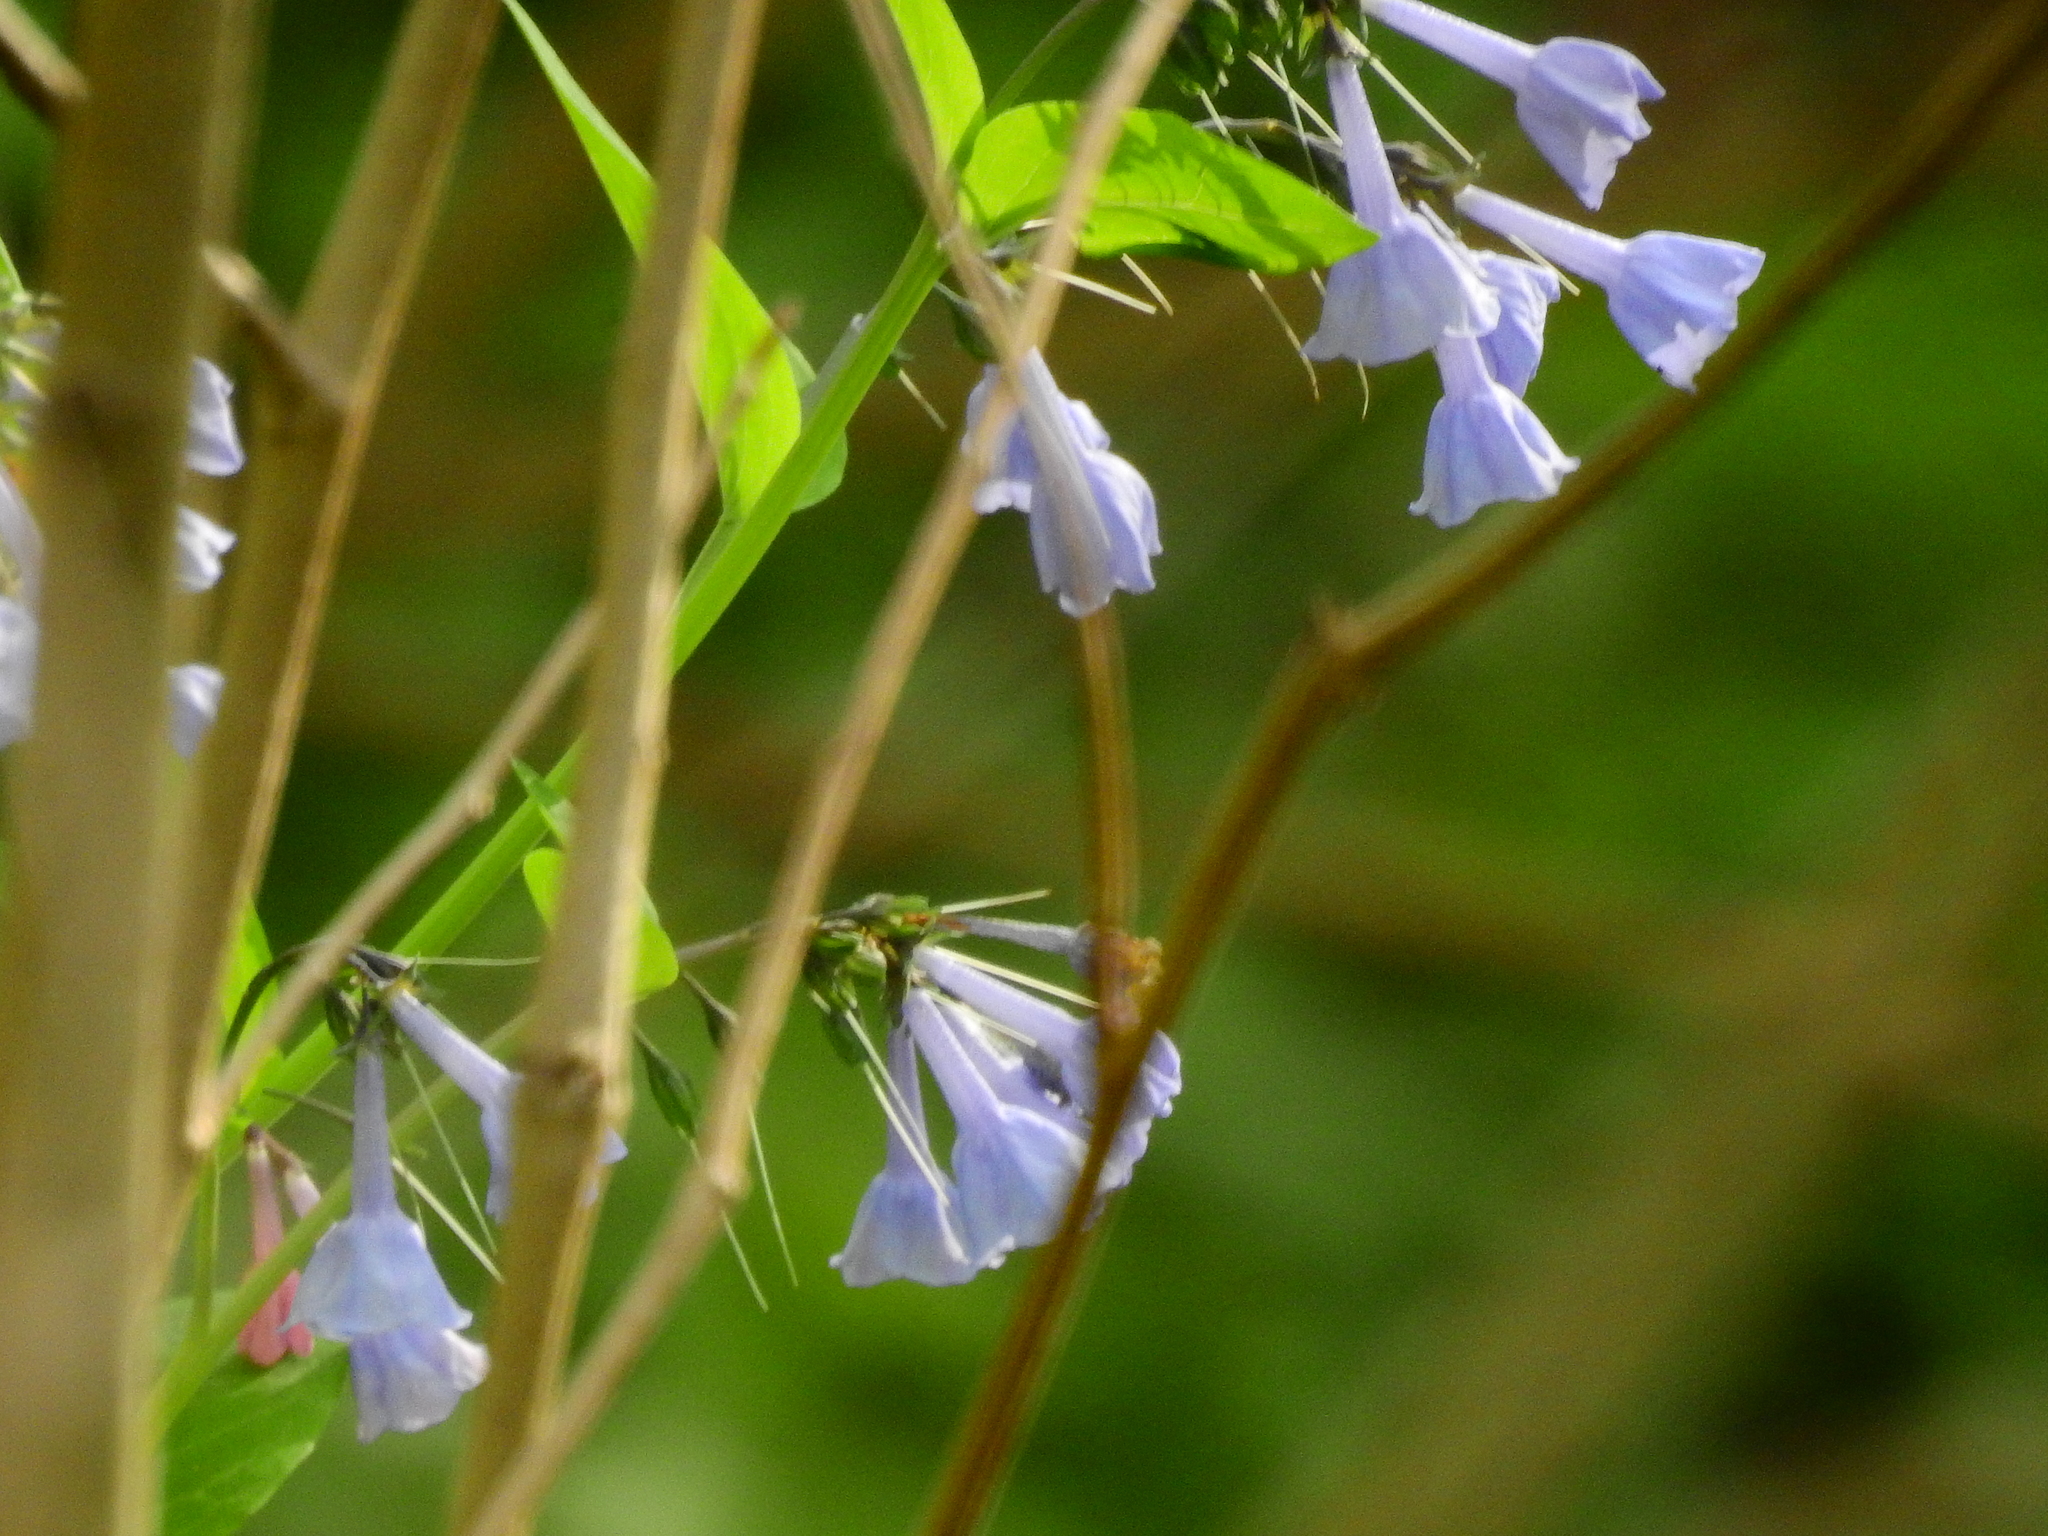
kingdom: Plantae
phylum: Tracheophyta
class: Magnoliopsida
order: Boraginales
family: Boraginaceae
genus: Mertensia
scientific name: Mertensia virginica
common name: Virginia bluebells
